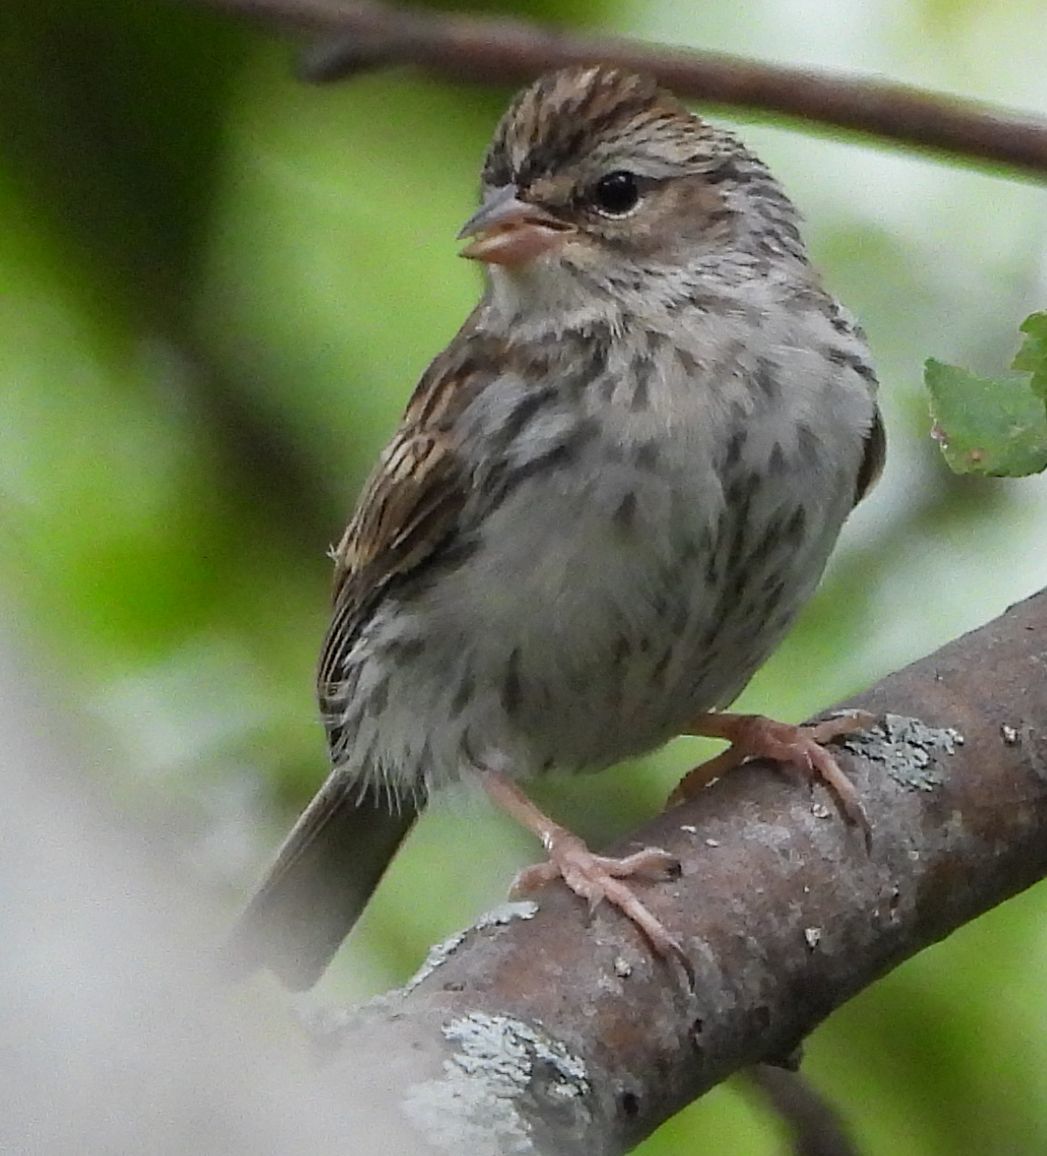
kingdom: Animalia
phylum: Chordata
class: Aves
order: Passeriformes
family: Passerellidae
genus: Spizella
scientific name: Spizella passerina
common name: Chipping sparrow
